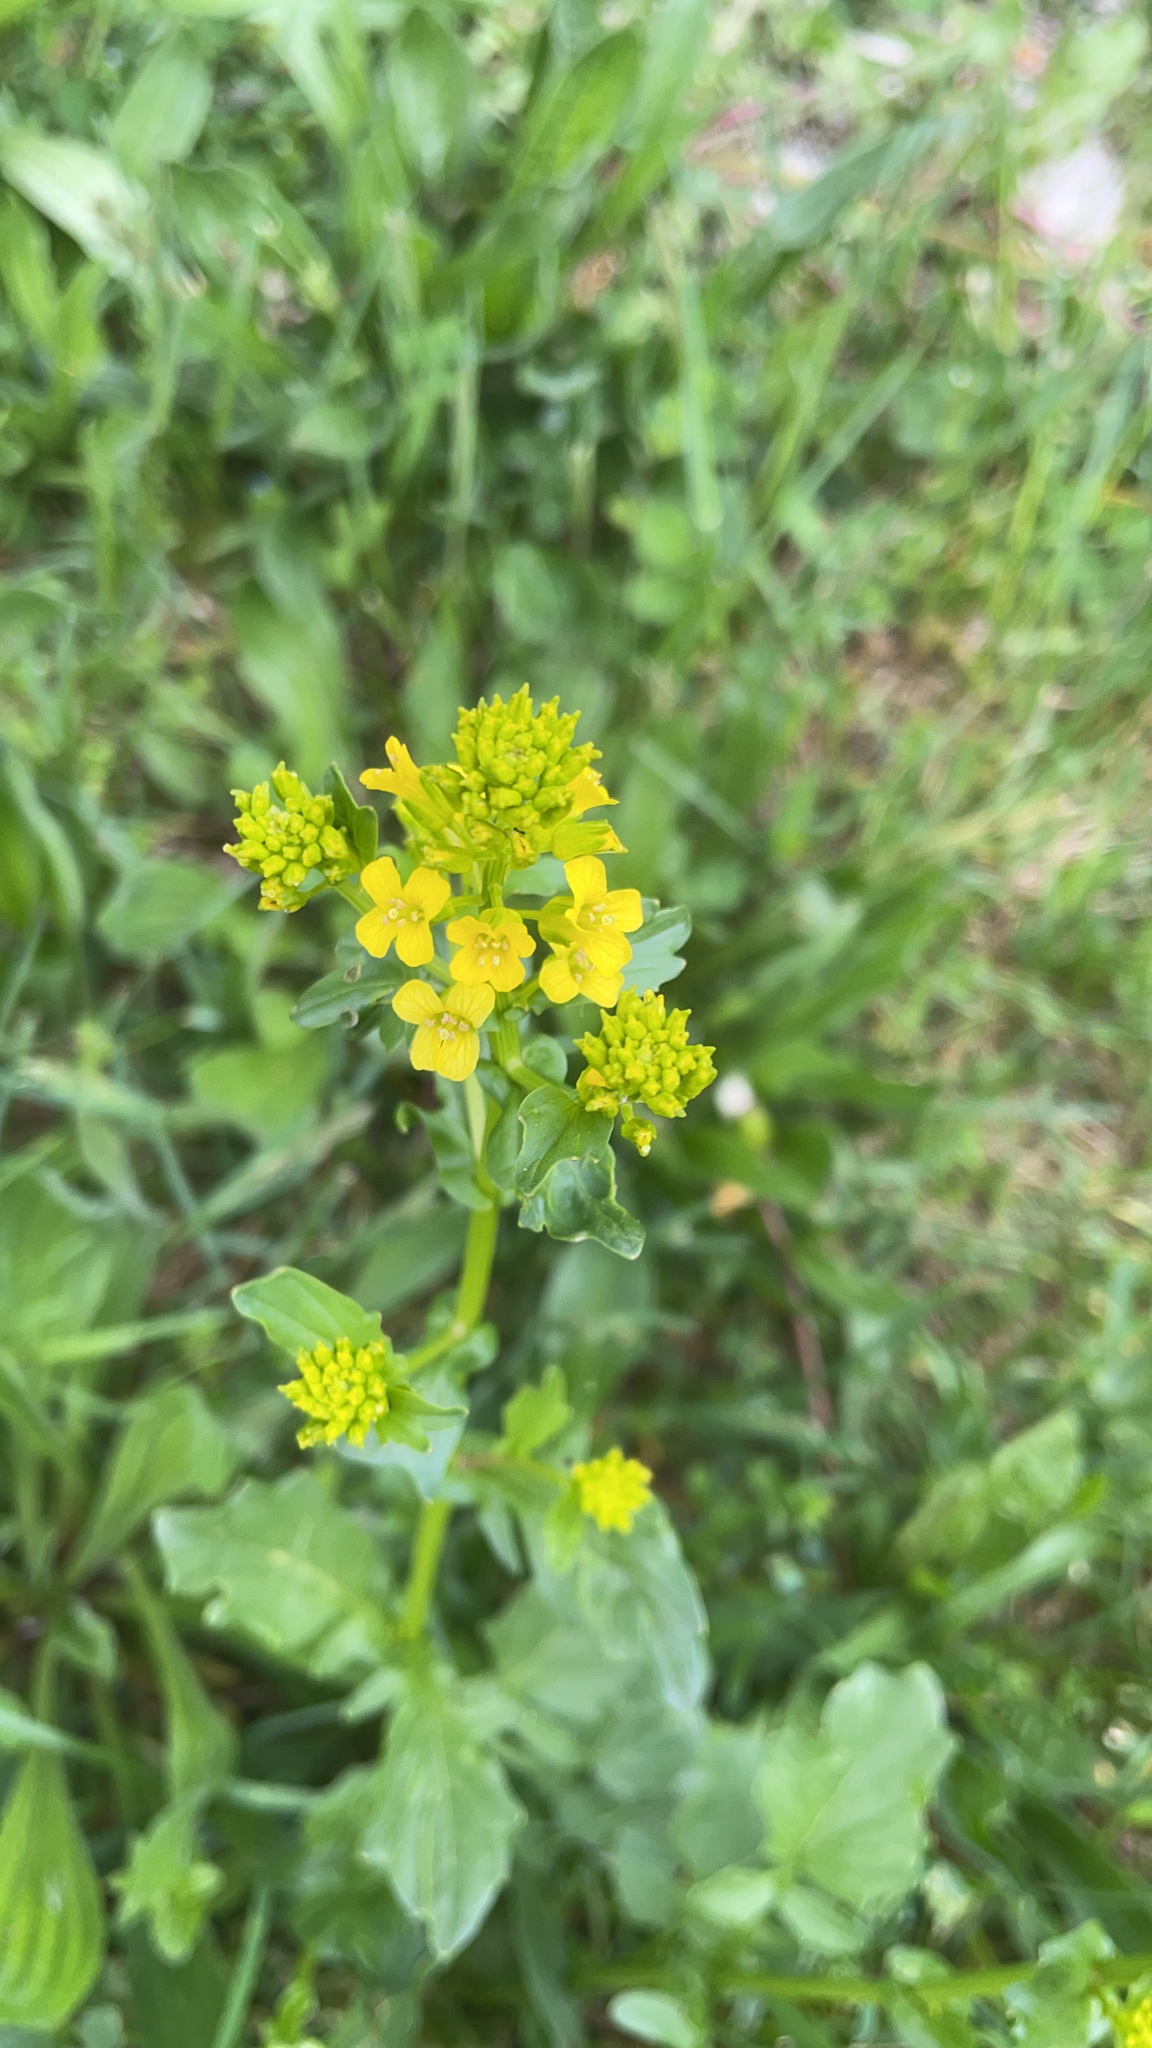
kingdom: Plantae
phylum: Tracheophyta
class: Magnoliopsida
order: Brassicales
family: Brassicaceae
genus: Barbarea
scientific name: Barbarea vulgaris
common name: Cressy-greens
